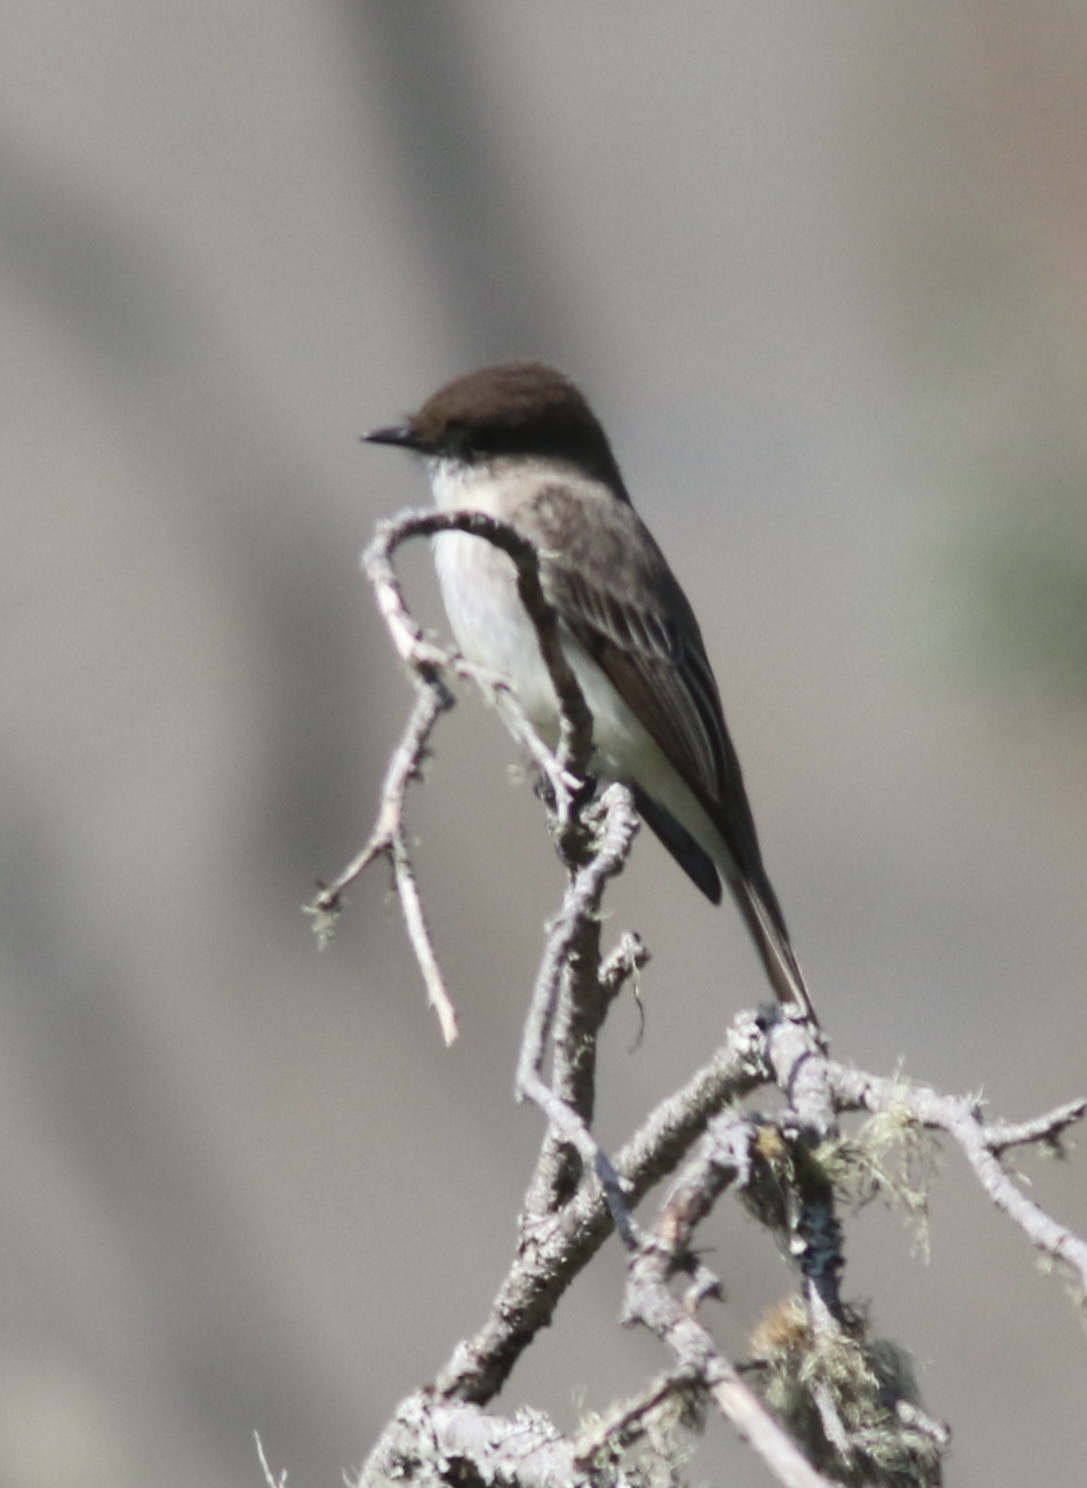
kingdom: Animalia
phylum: Chordata
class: Aves
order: Passeriformes
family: Tyrannidae
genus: Sayornis
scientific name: Sayornis phoebe
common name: Eastern phoebe
